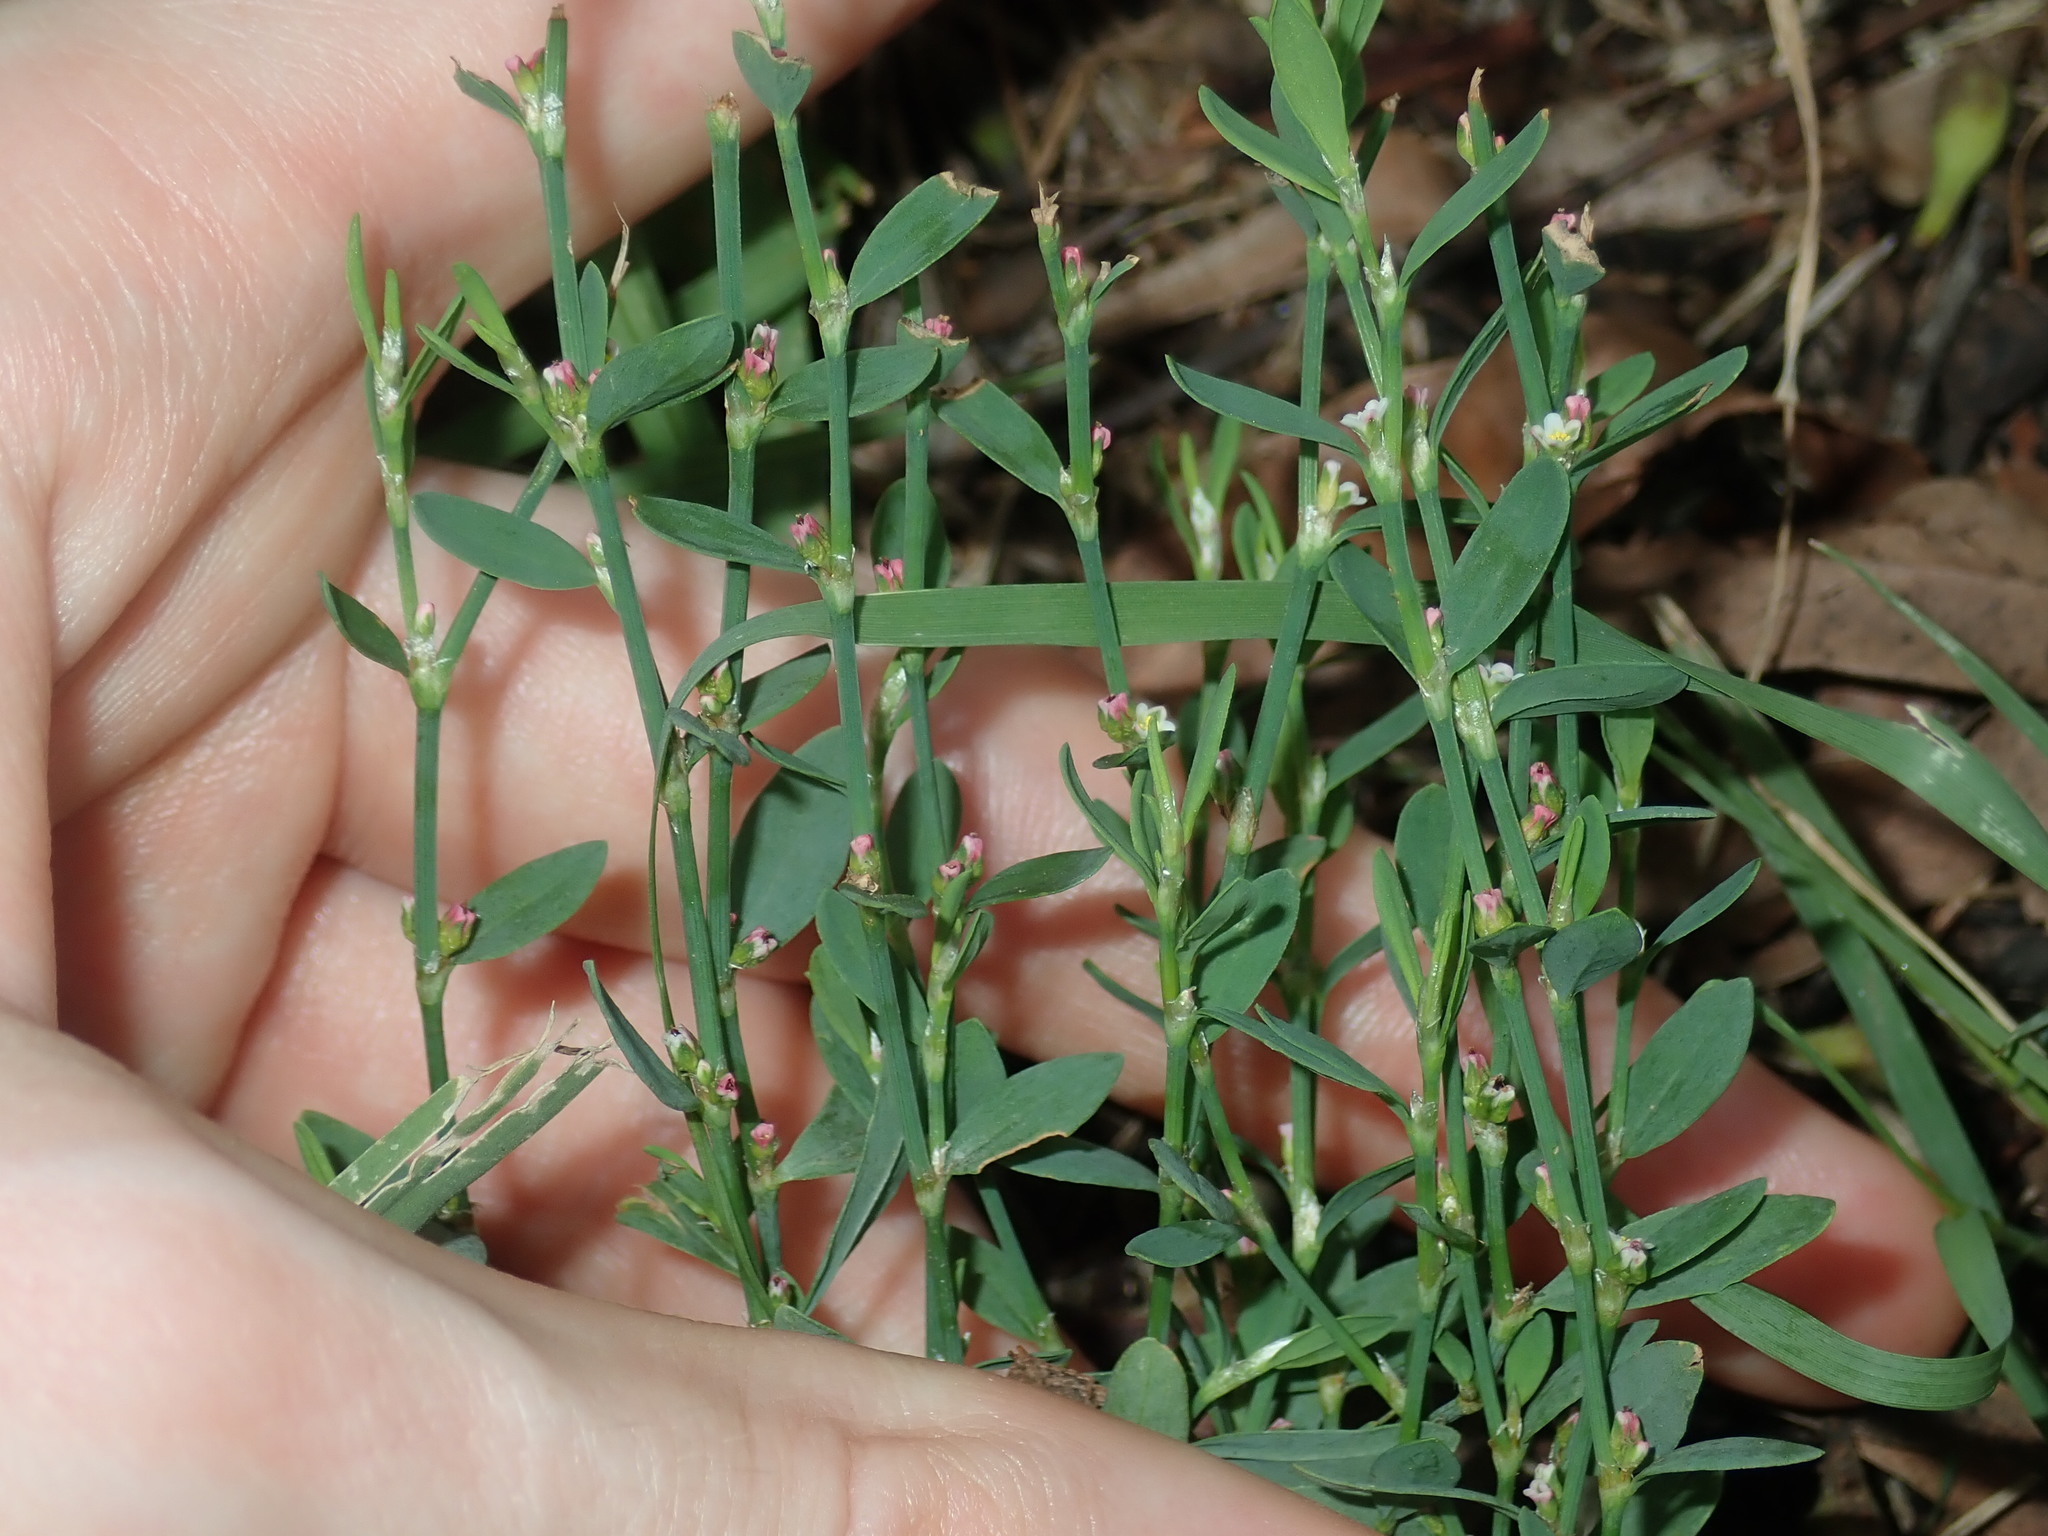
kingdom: Plantae
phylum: Tracheophyta
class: Magnoliopsida
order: Caryophyllales
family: Polygonaceae
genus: Polygonum
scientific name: Polygonum aviculare
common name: Prostrate knotweed
